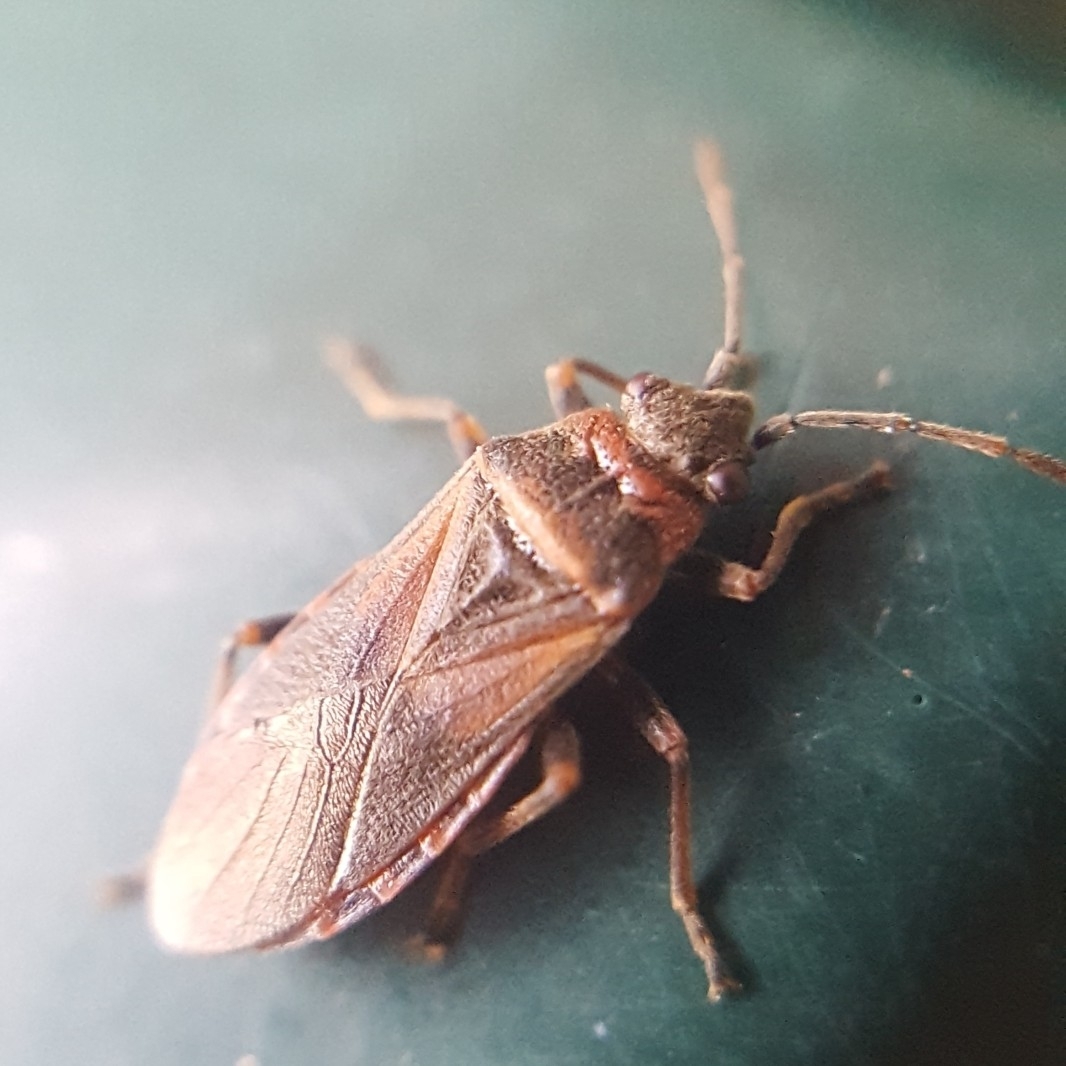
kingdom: Animalia
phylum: Arthropoda
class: Insecta
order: Hemiptera
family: Lygaeidae
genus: Arocatus
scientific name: Arocatus melanocephalus
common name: Lygaeid bug
